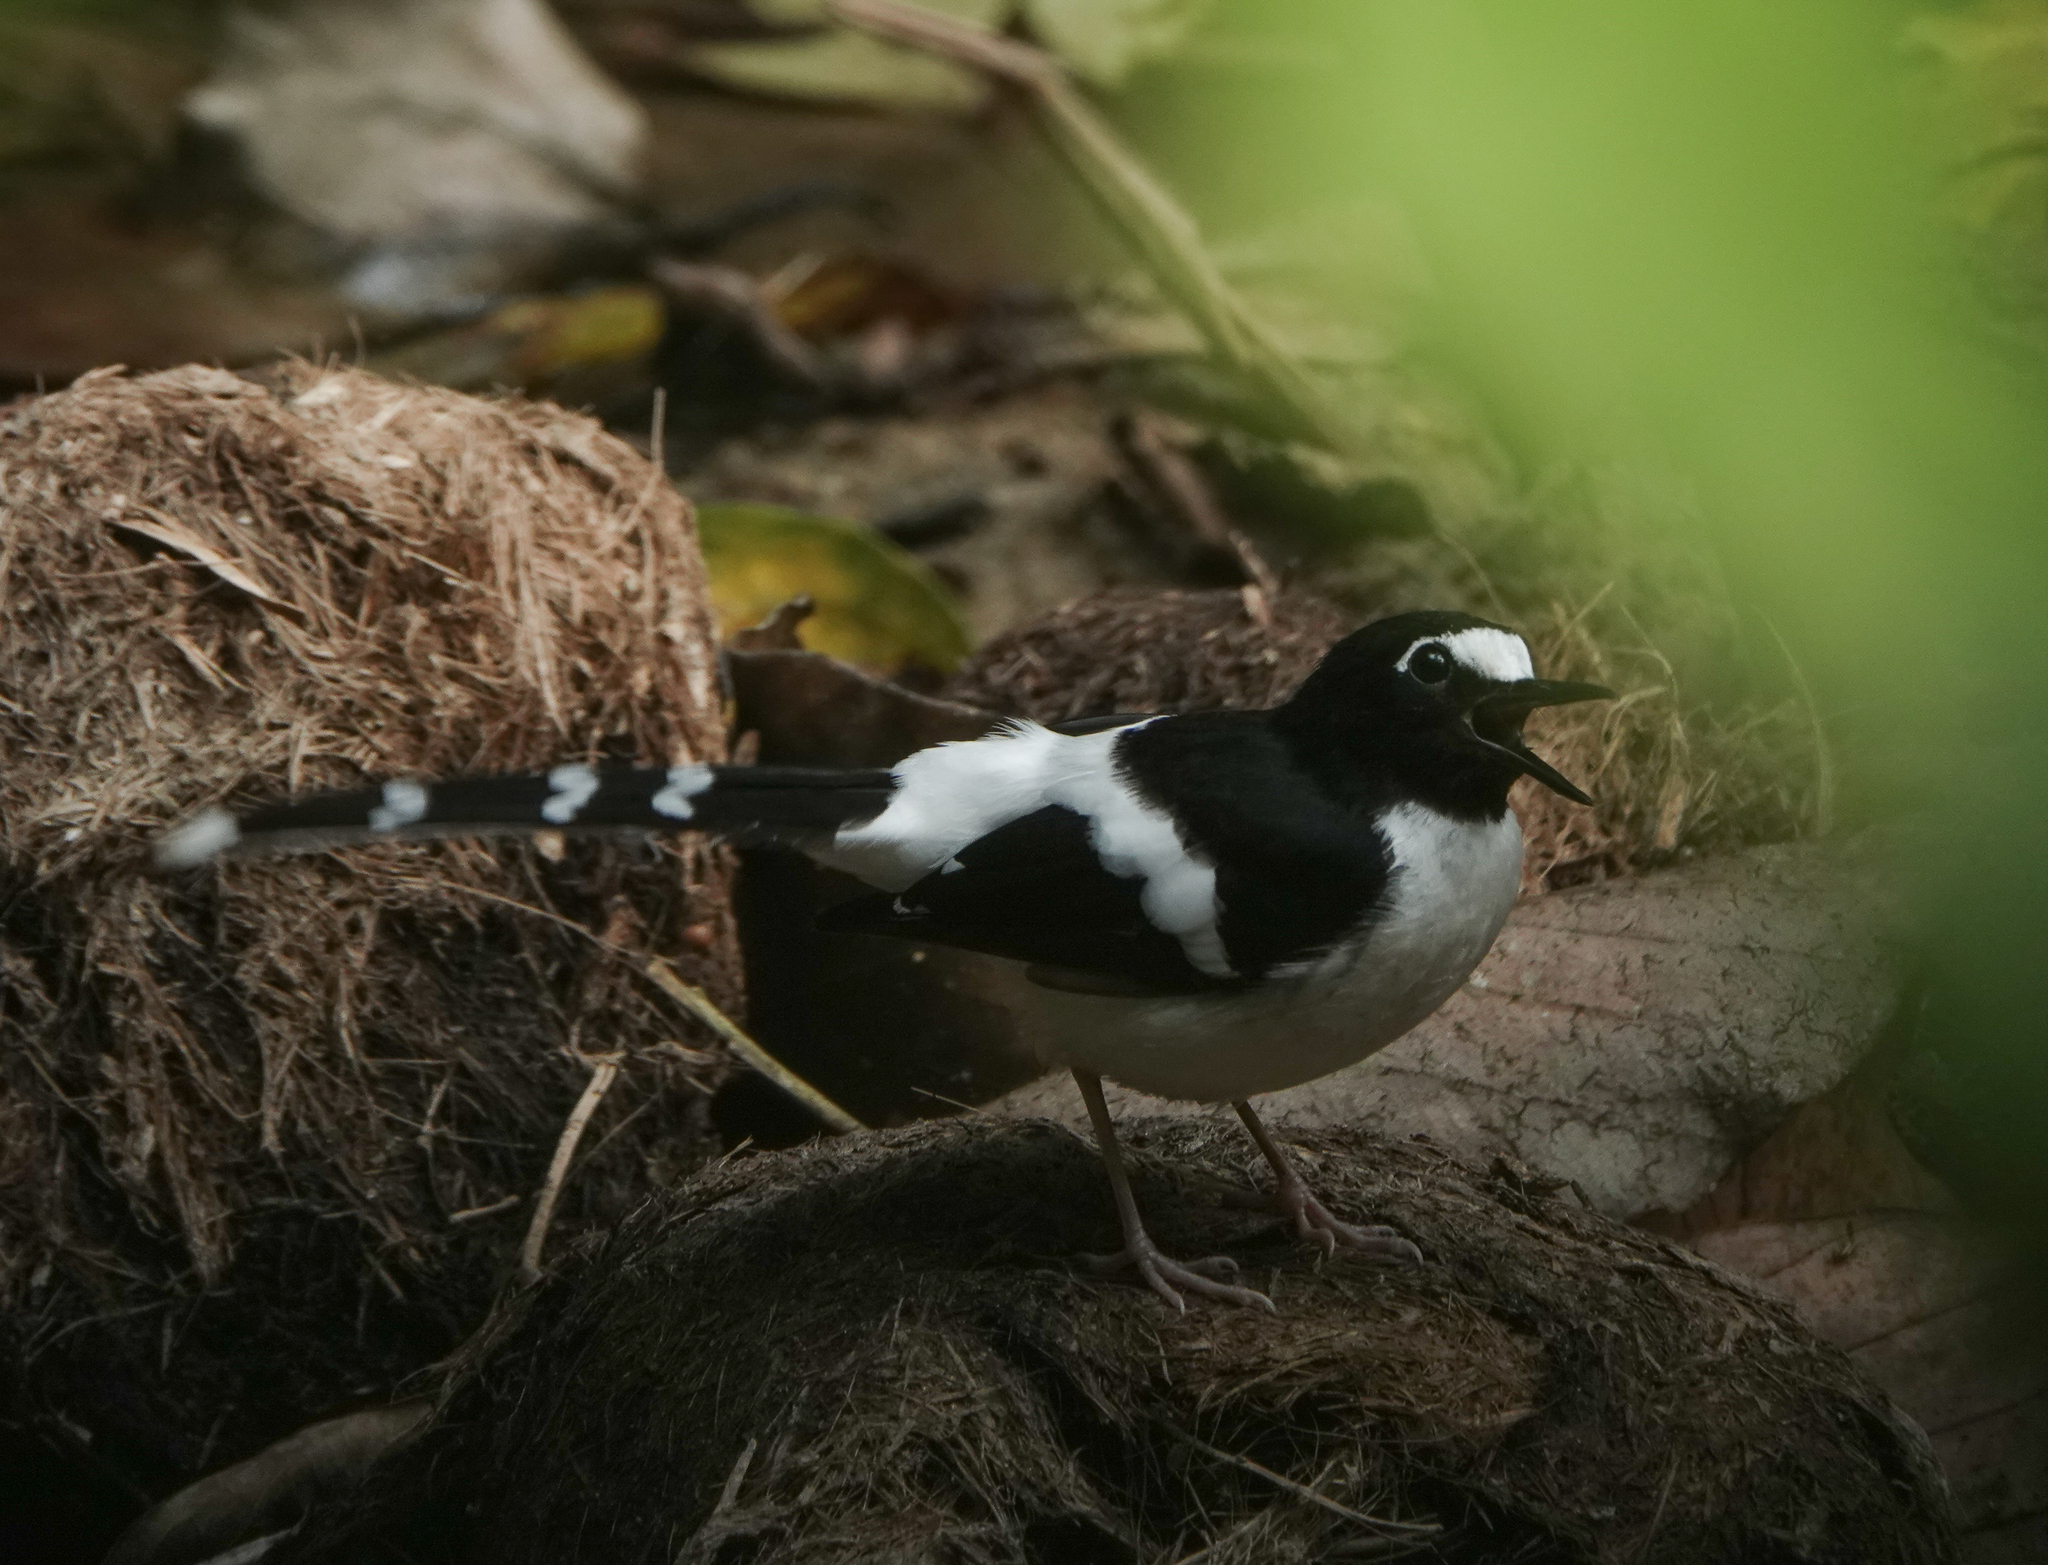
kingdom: Animalia
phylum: Chordata
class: Aves
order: Passeriformes
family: Muscicapidae
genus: Enicurus
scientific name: Enicurus immaculatus
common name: Black-backed forktail
